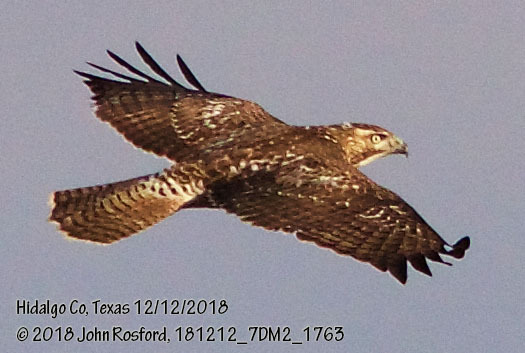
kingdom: Animalia
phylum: Chordata
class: Aves
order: Accipitriformes
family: Accipitridae
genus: Buteo
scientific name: Buteo jamaicensis
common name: Red-tailed hawk
